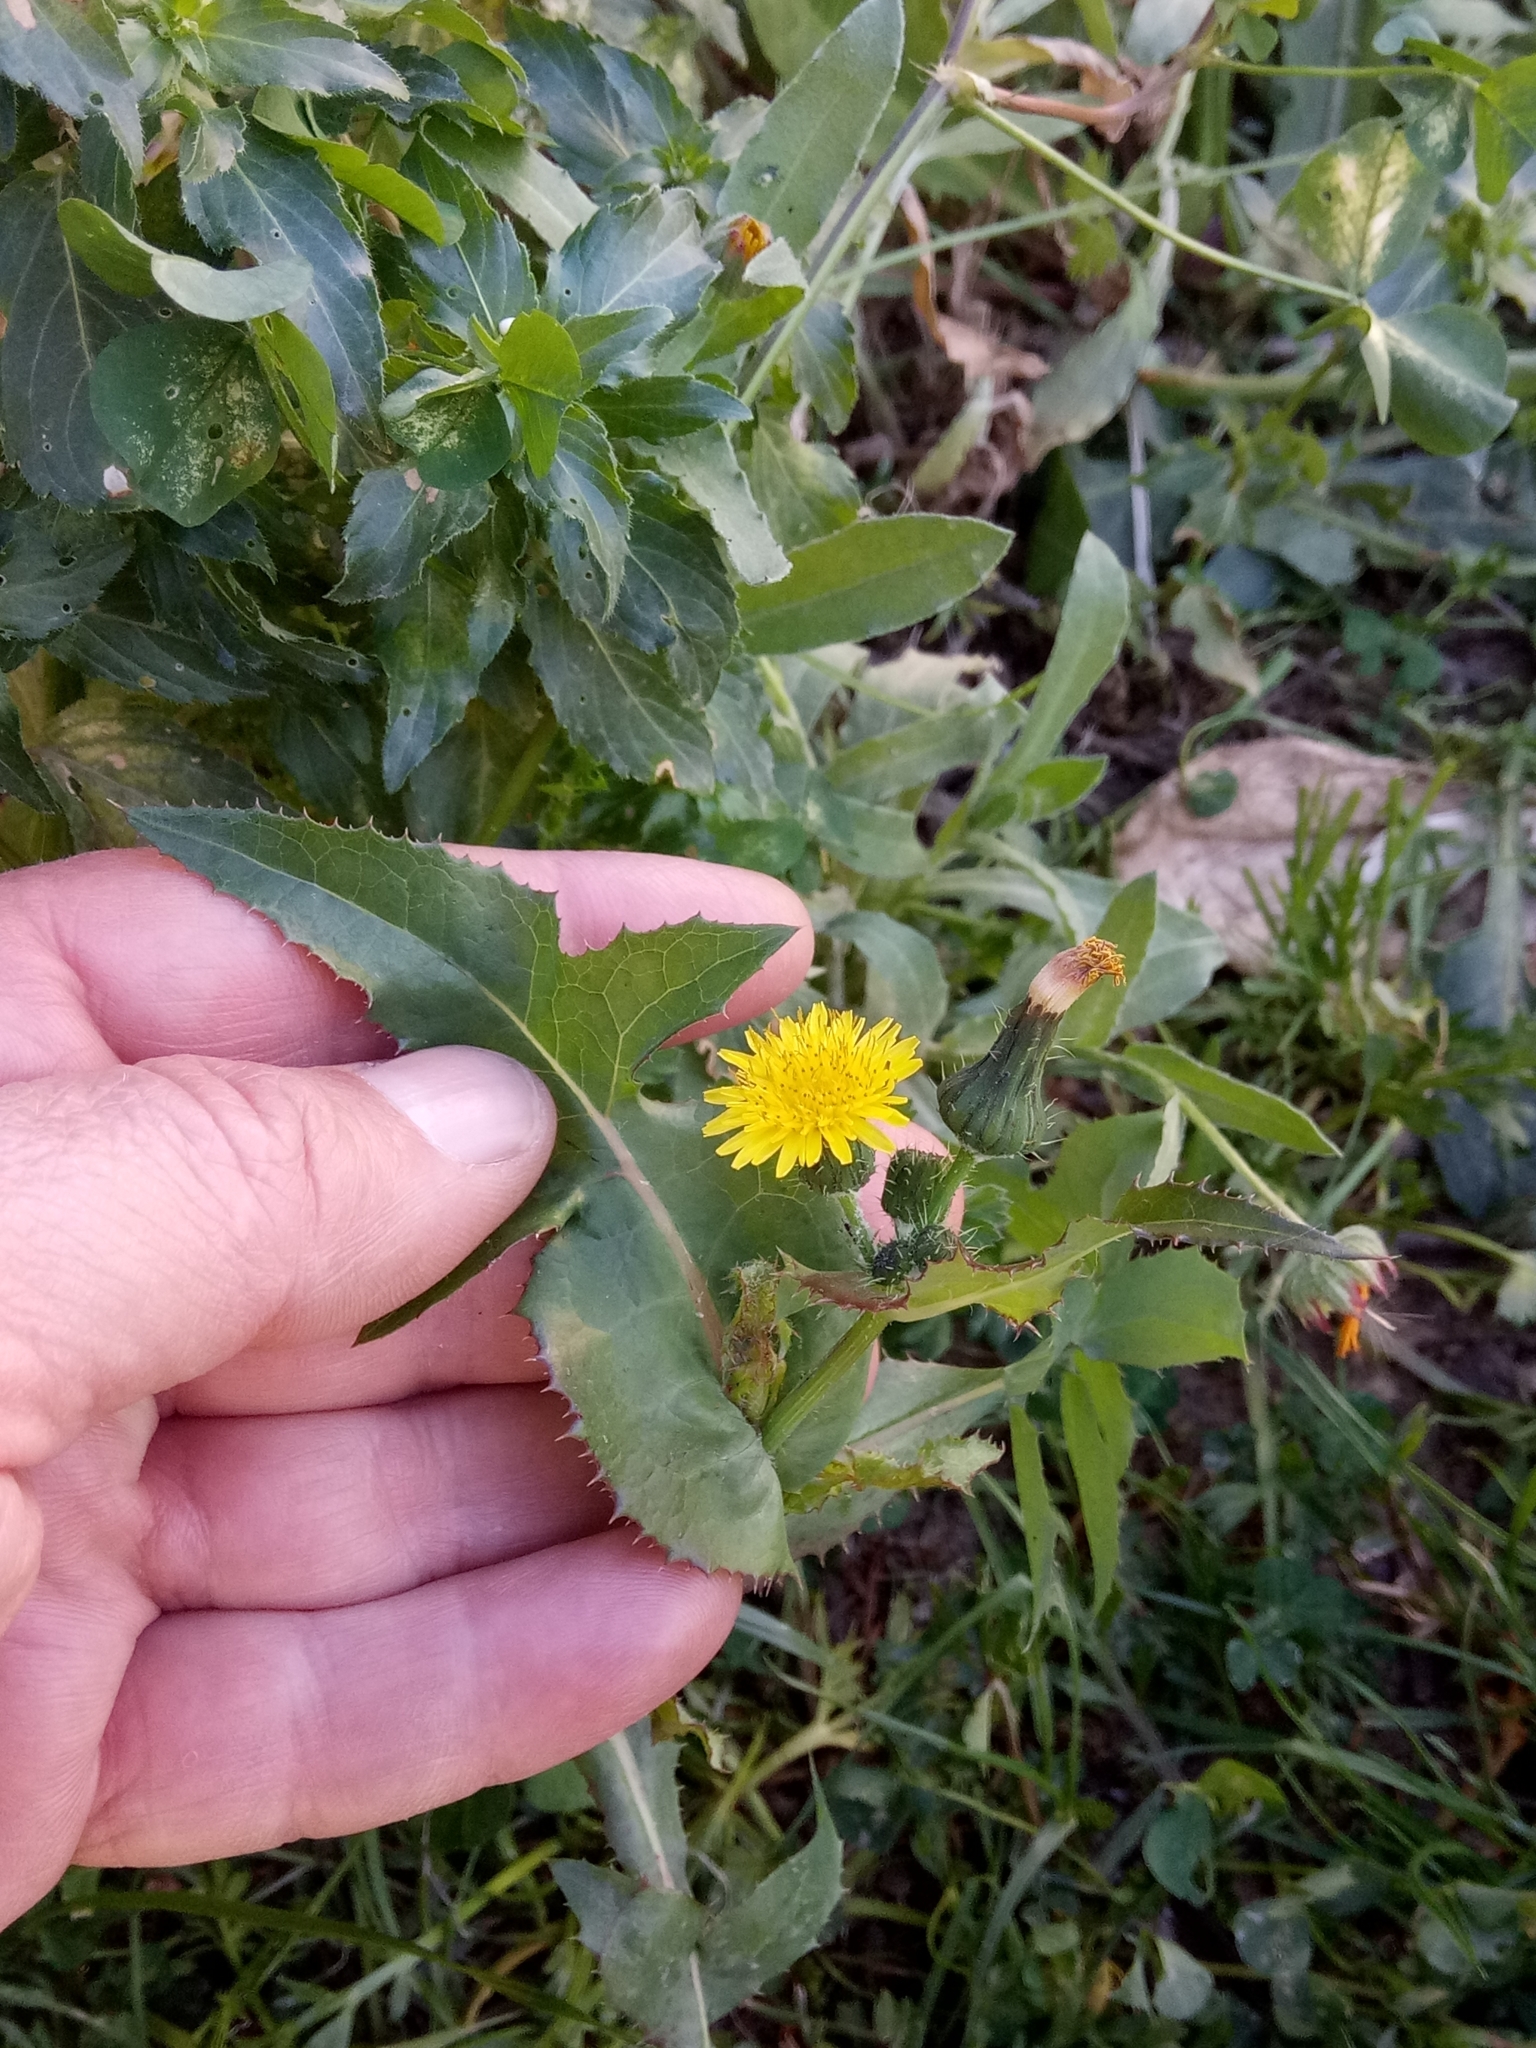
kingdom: Plantae
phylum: Tracheophyta
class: Magnoliopsida
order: Asterales
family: Asteraceae
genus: Sonchus
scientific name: Sonchus oleraceus
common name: Common sowthistle
